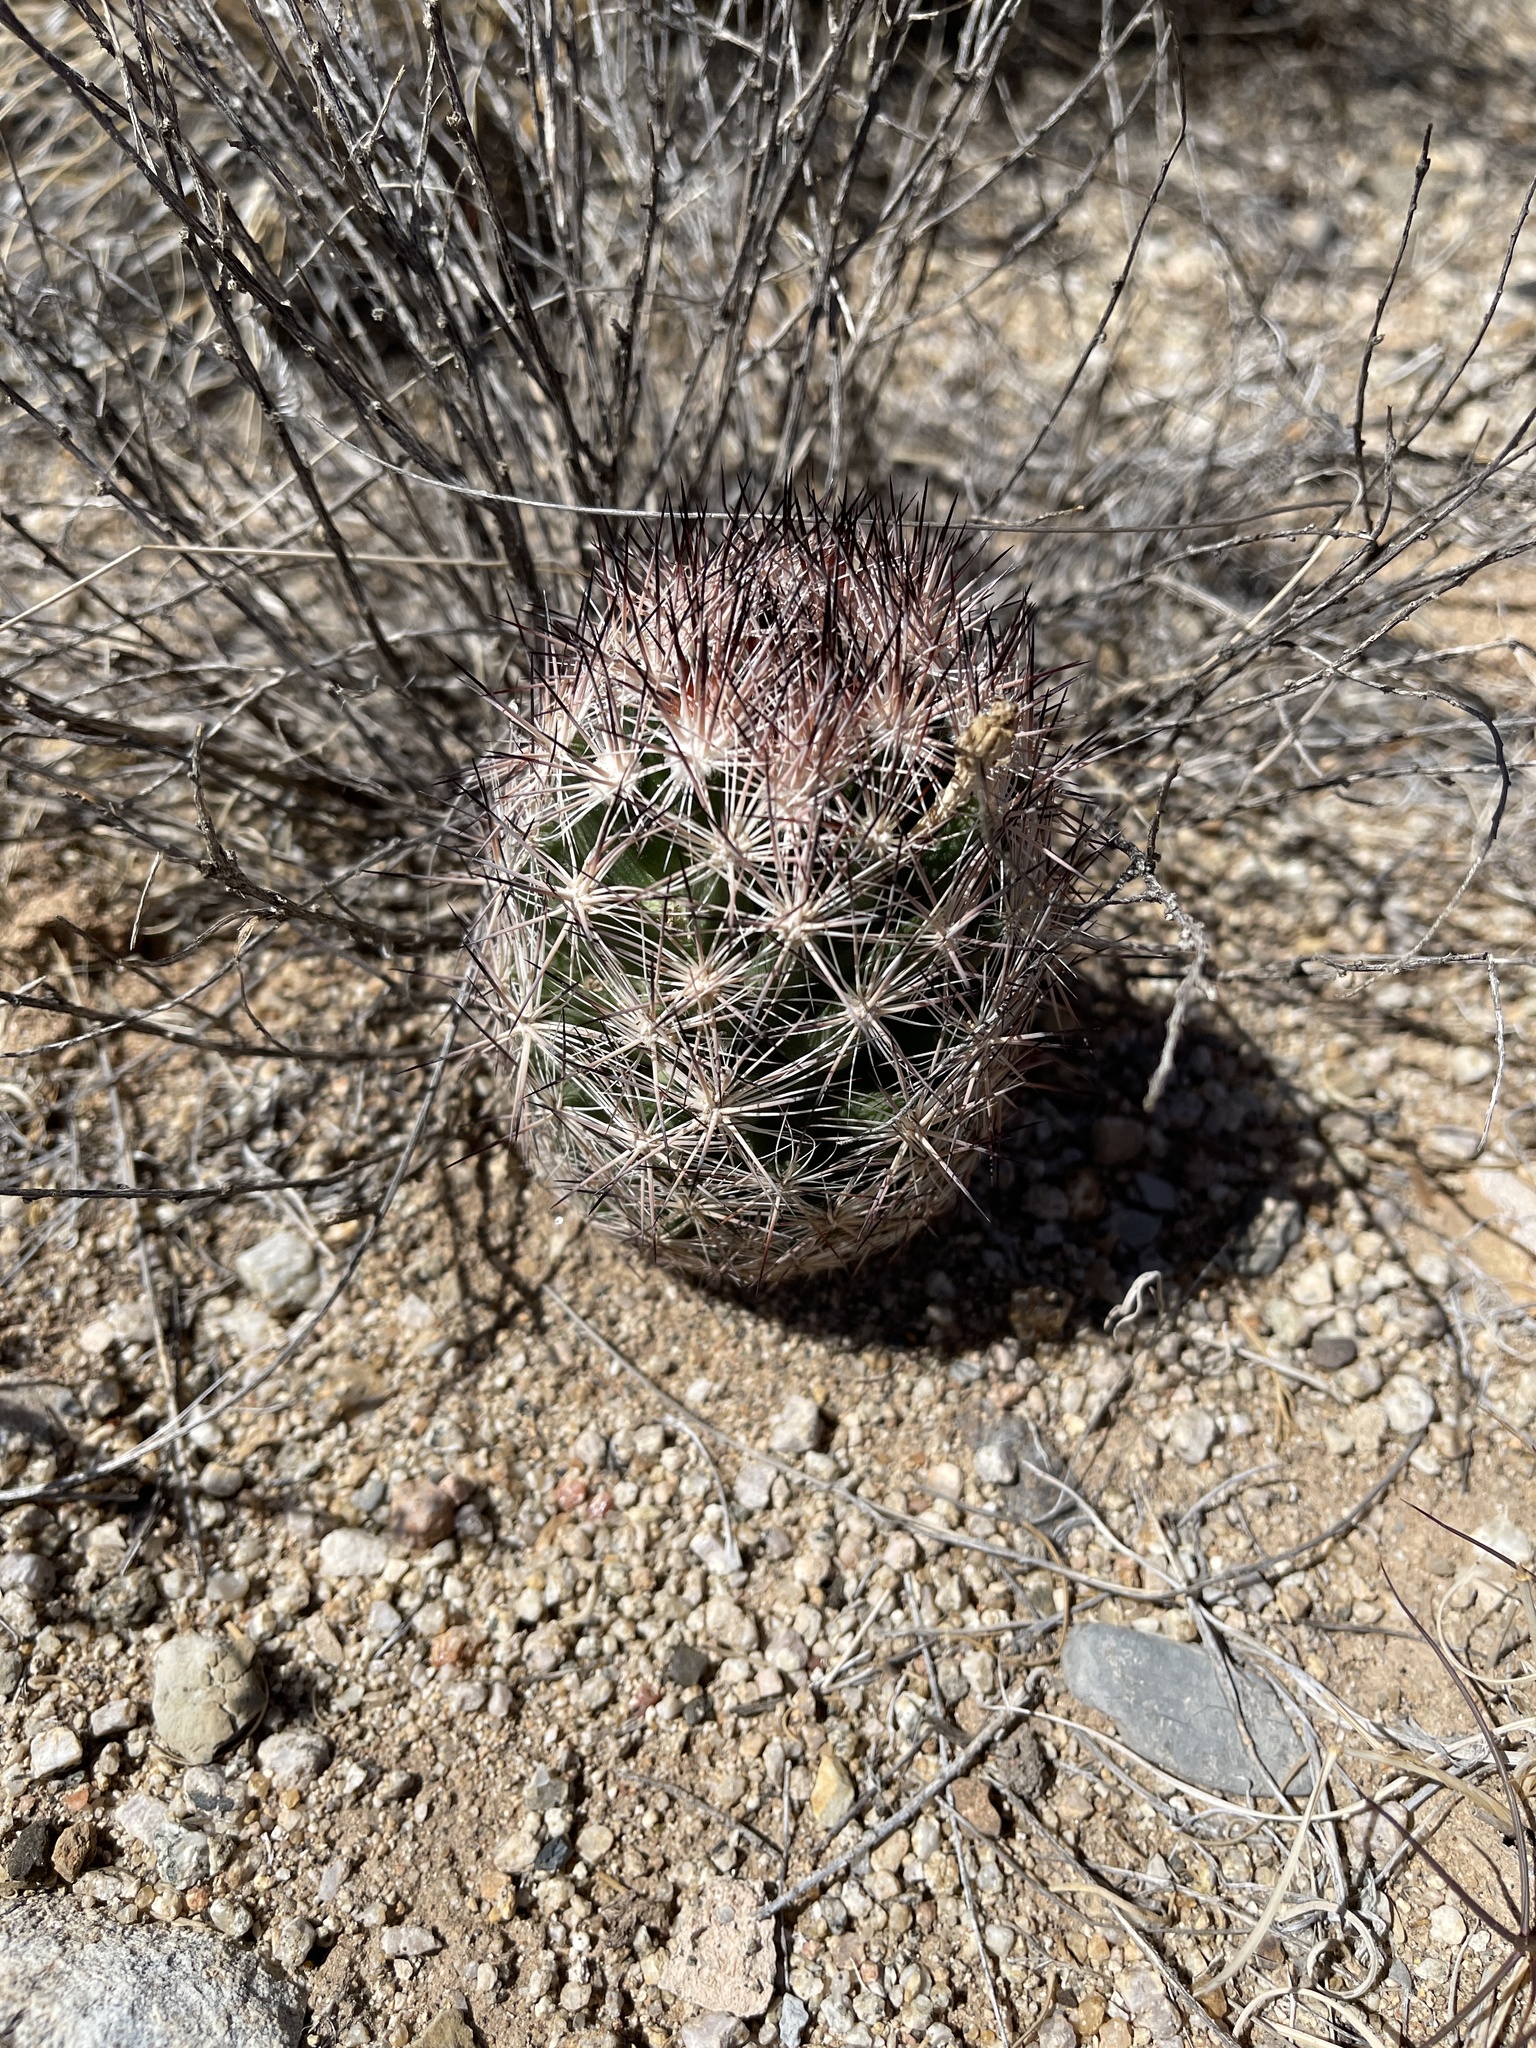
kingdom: Plantae
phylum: Tracheophyta
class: Magnoliopsida
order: Caryophyllales
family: Cactaceae
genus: Pelecyphora
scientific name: Pelecyphora vivipara
